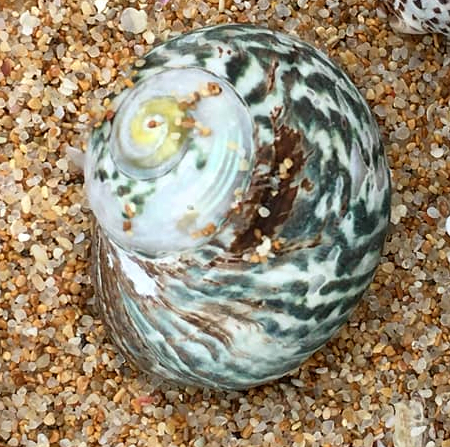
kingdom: Animalia
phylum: Mollusca
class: Gastropoda
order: Trochida
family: Turbinidae
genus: Lunella
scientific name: Lunella undulata
